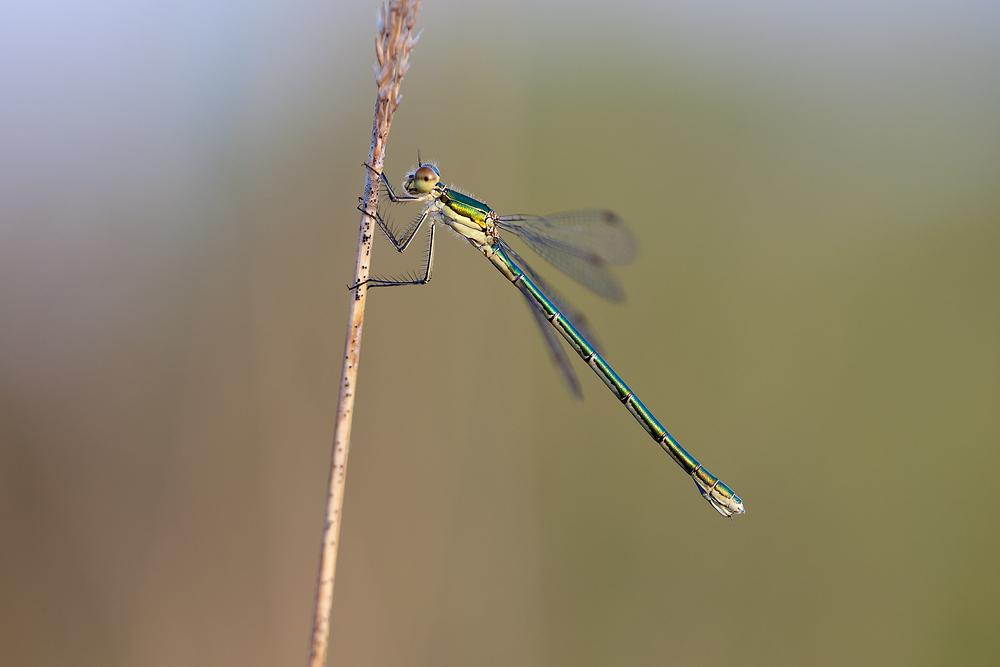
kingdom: Animalia
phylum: Arthropoda
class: Insecta
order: Odonata
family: Lestidae
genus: Lestes
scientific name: Lestes virens
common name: Small emerald spreadwing
